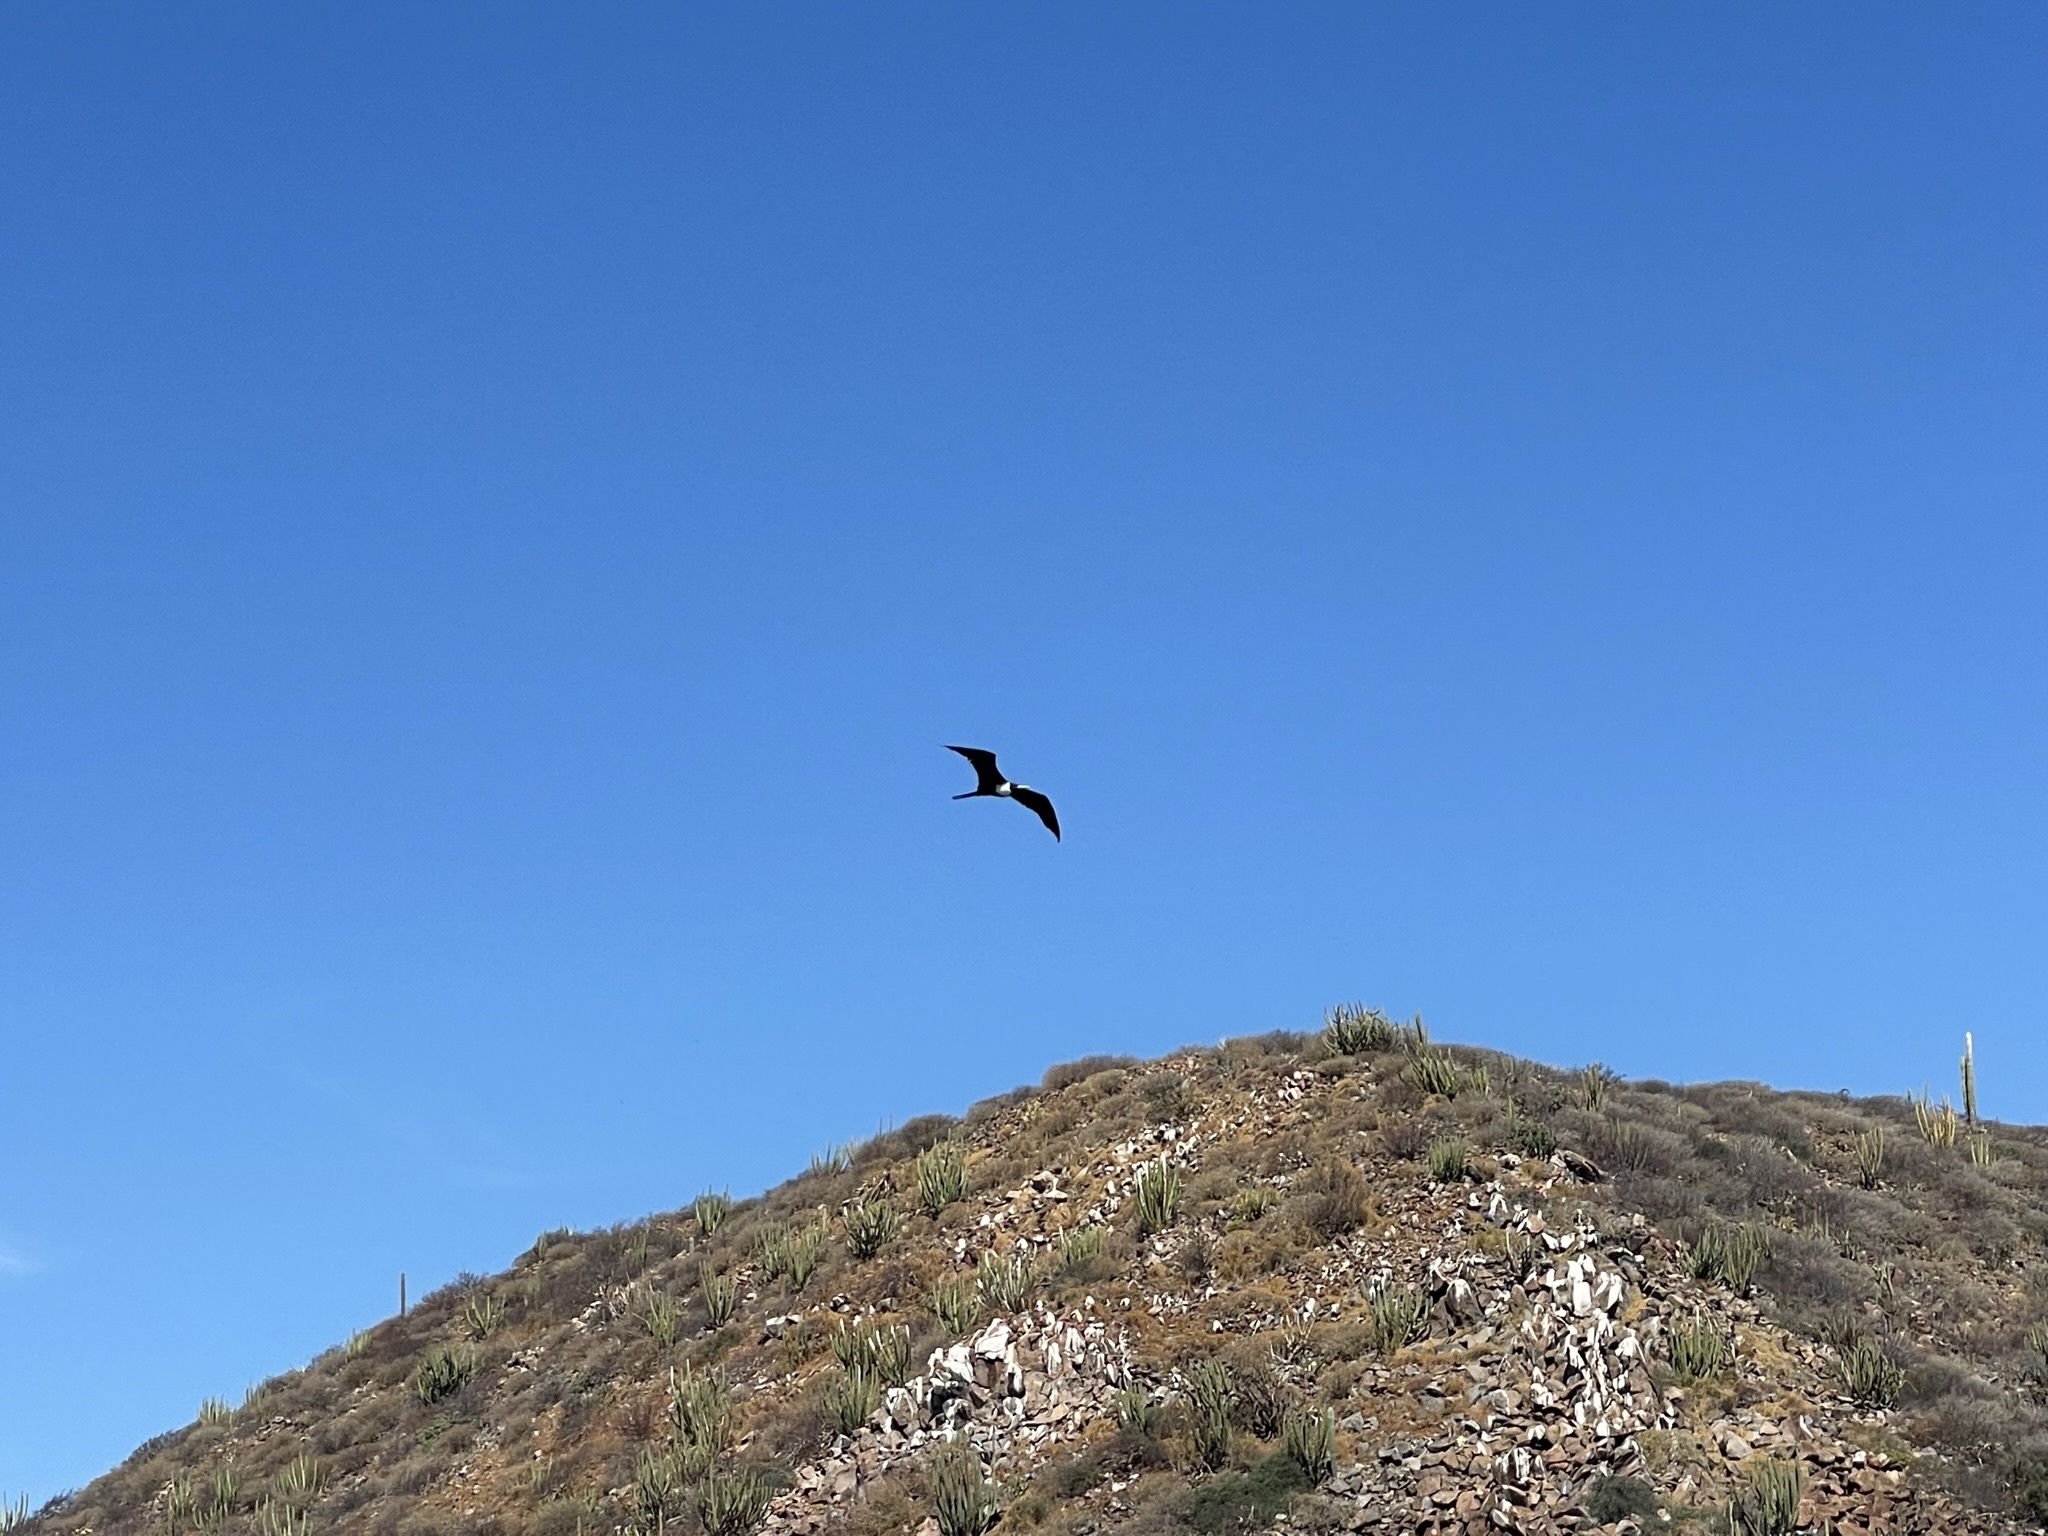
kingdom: Animalia
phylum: Chordata
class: Aves
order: Suliformes
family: Fregatidae
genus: Fregata
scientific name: Fregata magnificens
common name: Magnificent frigatebird
